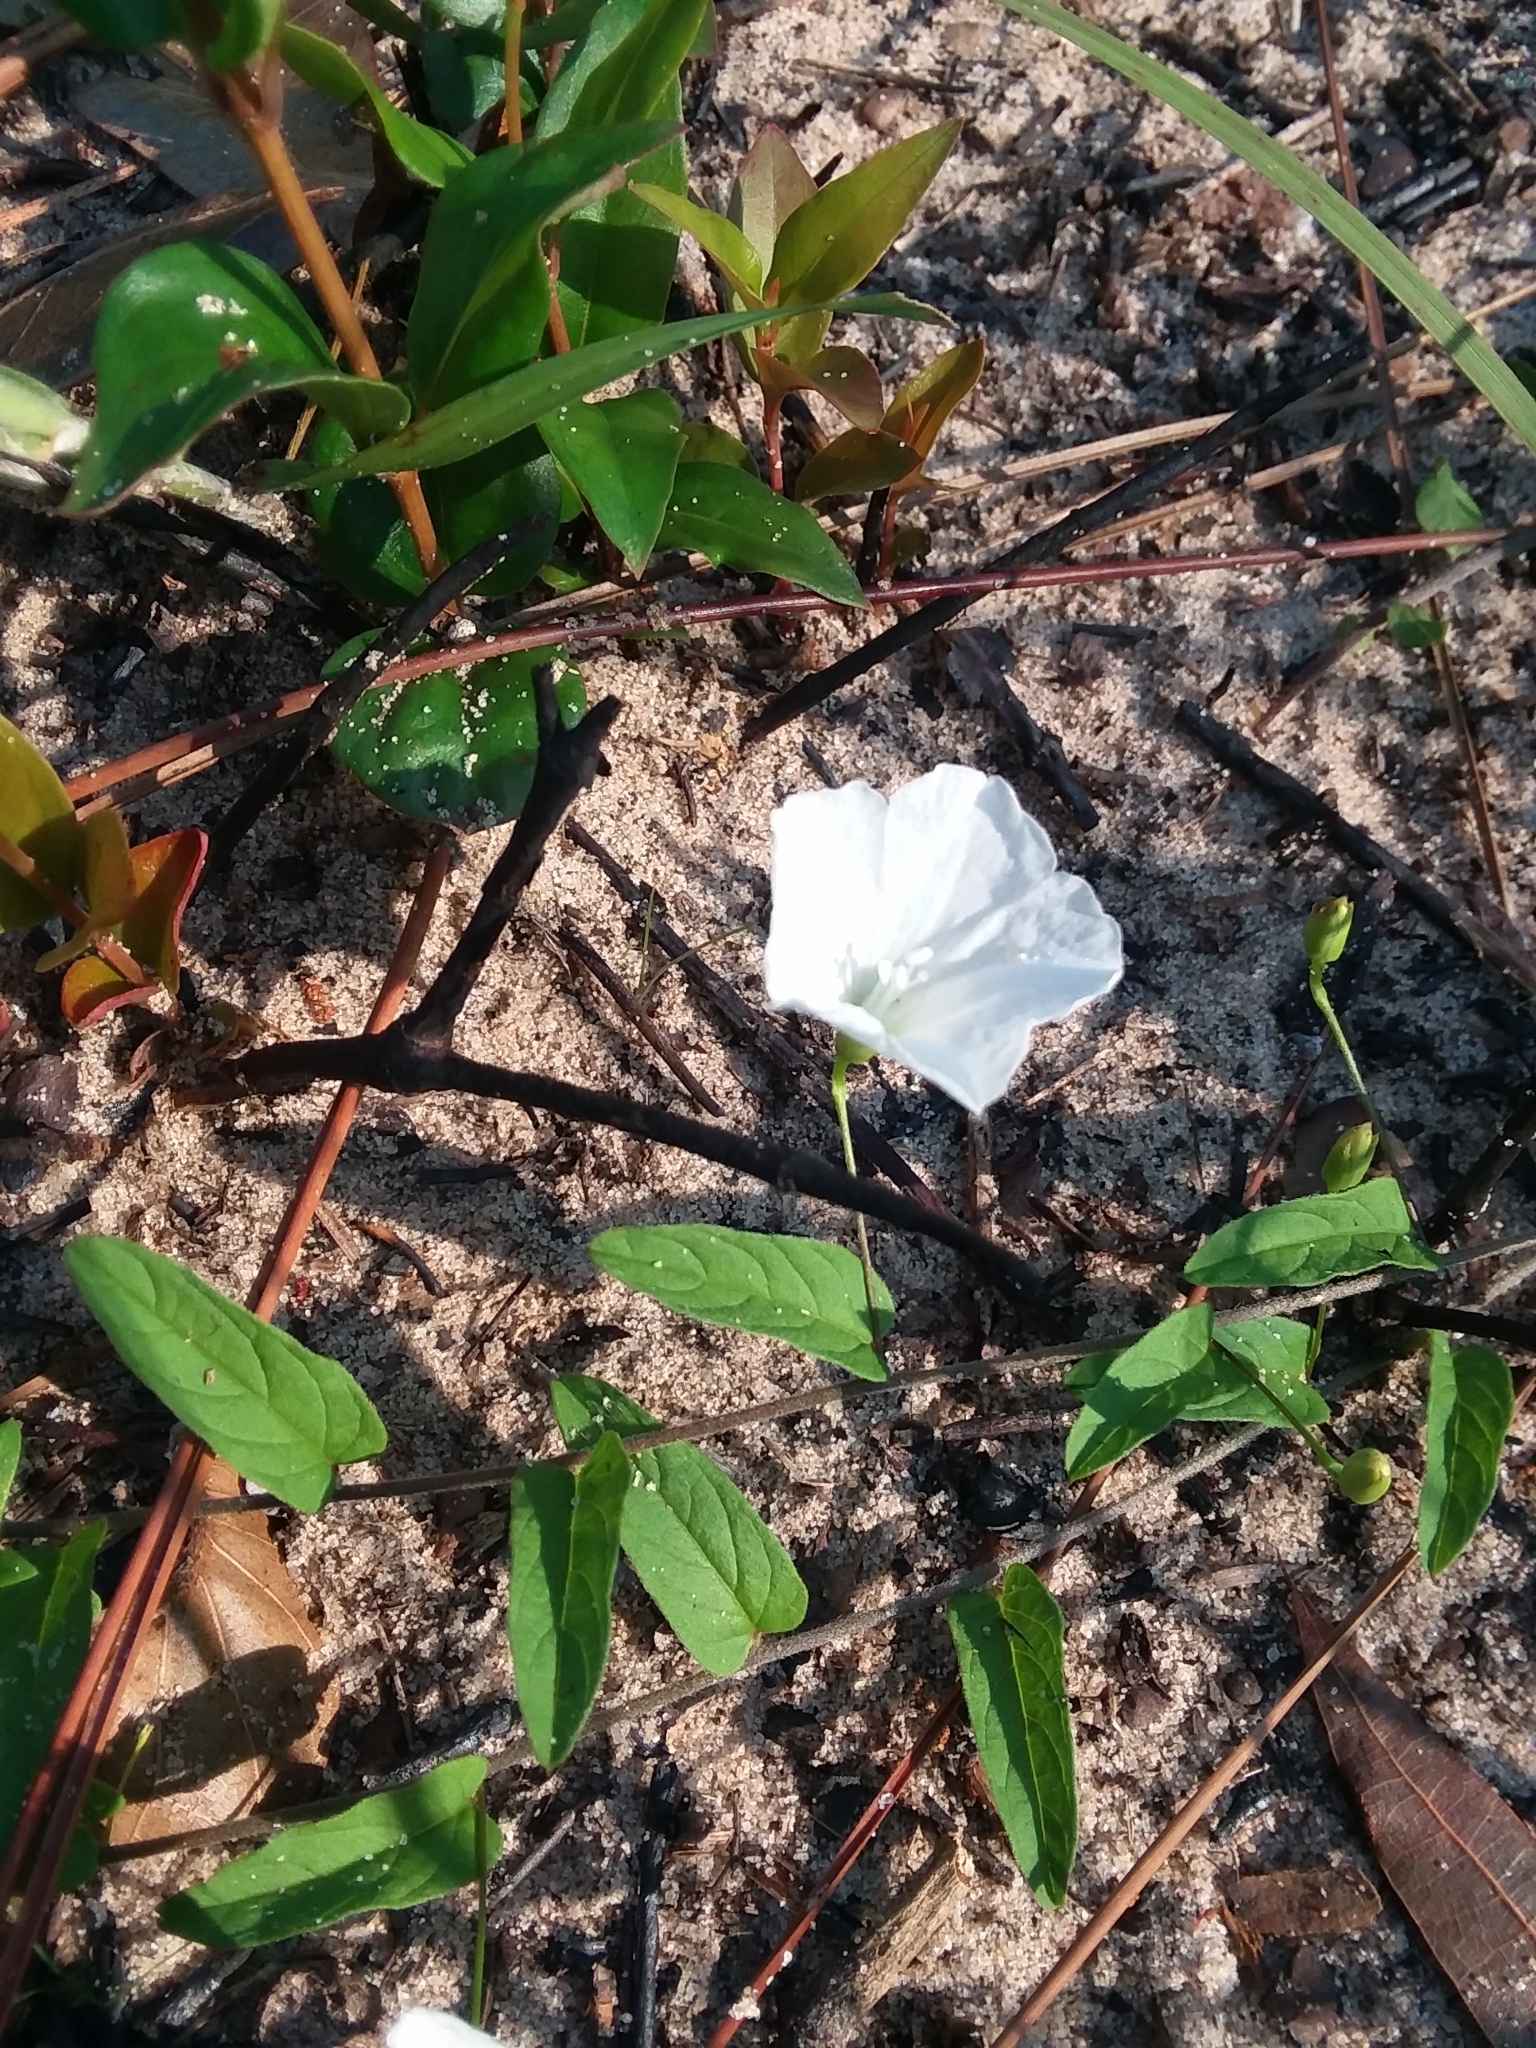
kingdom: Plantae
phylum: Tracheophyta
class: Magnoliopsida
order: Solanales
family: Convolvulaceae
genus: Stylisma
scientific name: Stylisma patens
